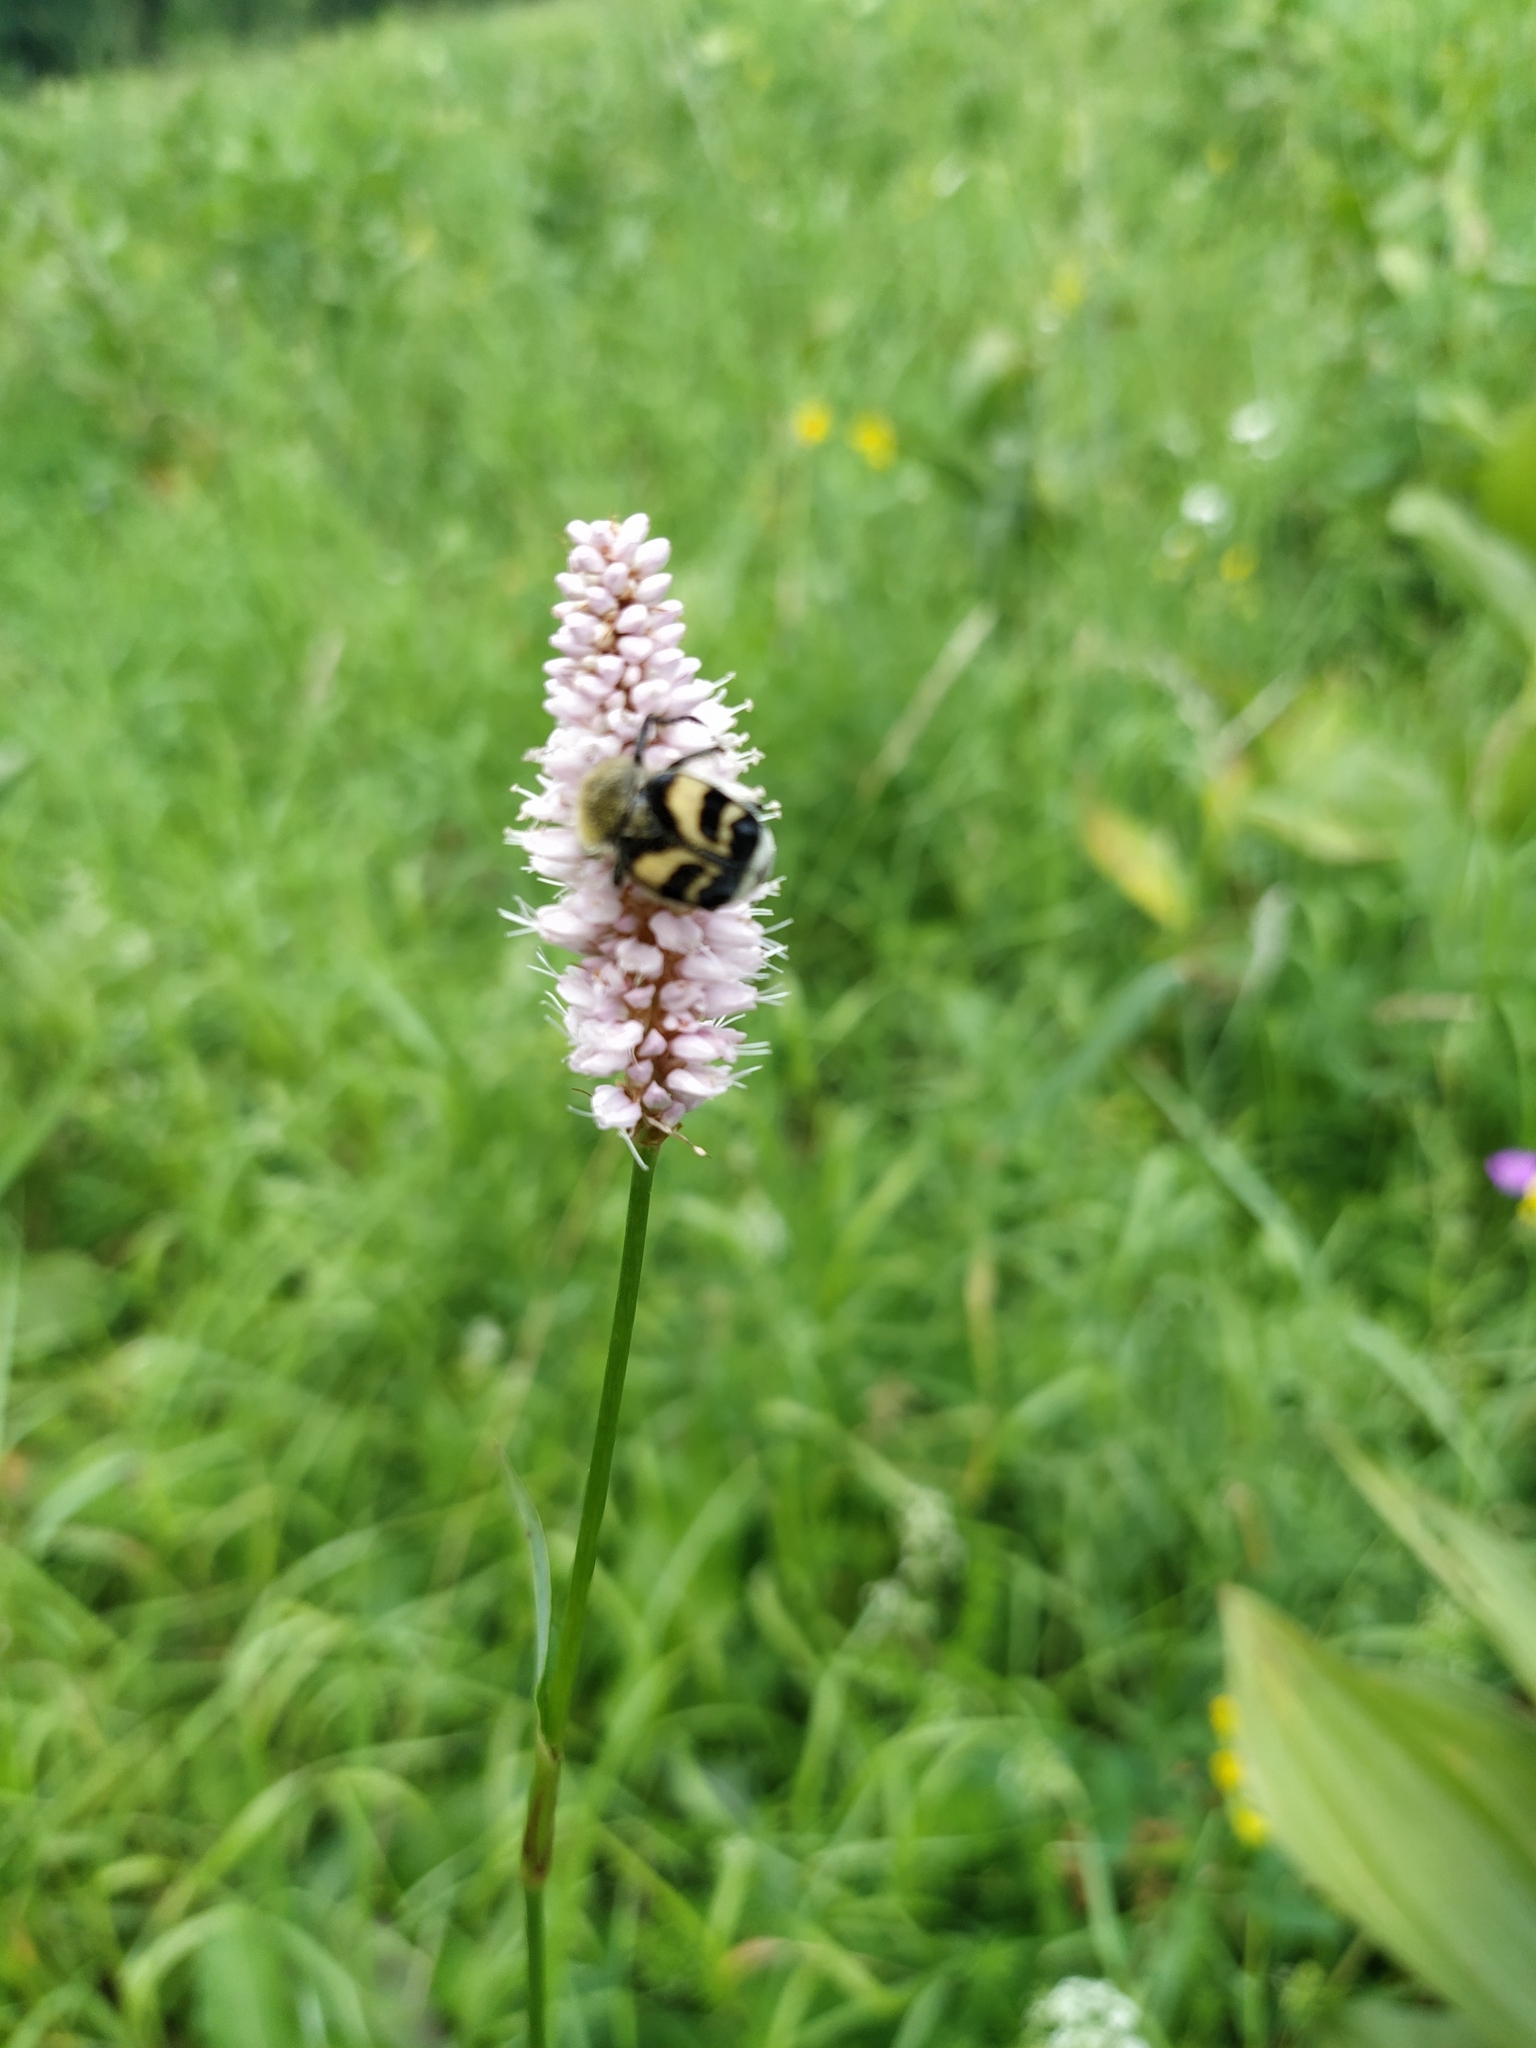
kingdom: Animalia
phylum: Arthropoda
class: Insecta
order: Coleoptera
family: Scarabaeidae
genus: Trichius
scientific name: Trichius fasciatus
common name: Bee beetle
